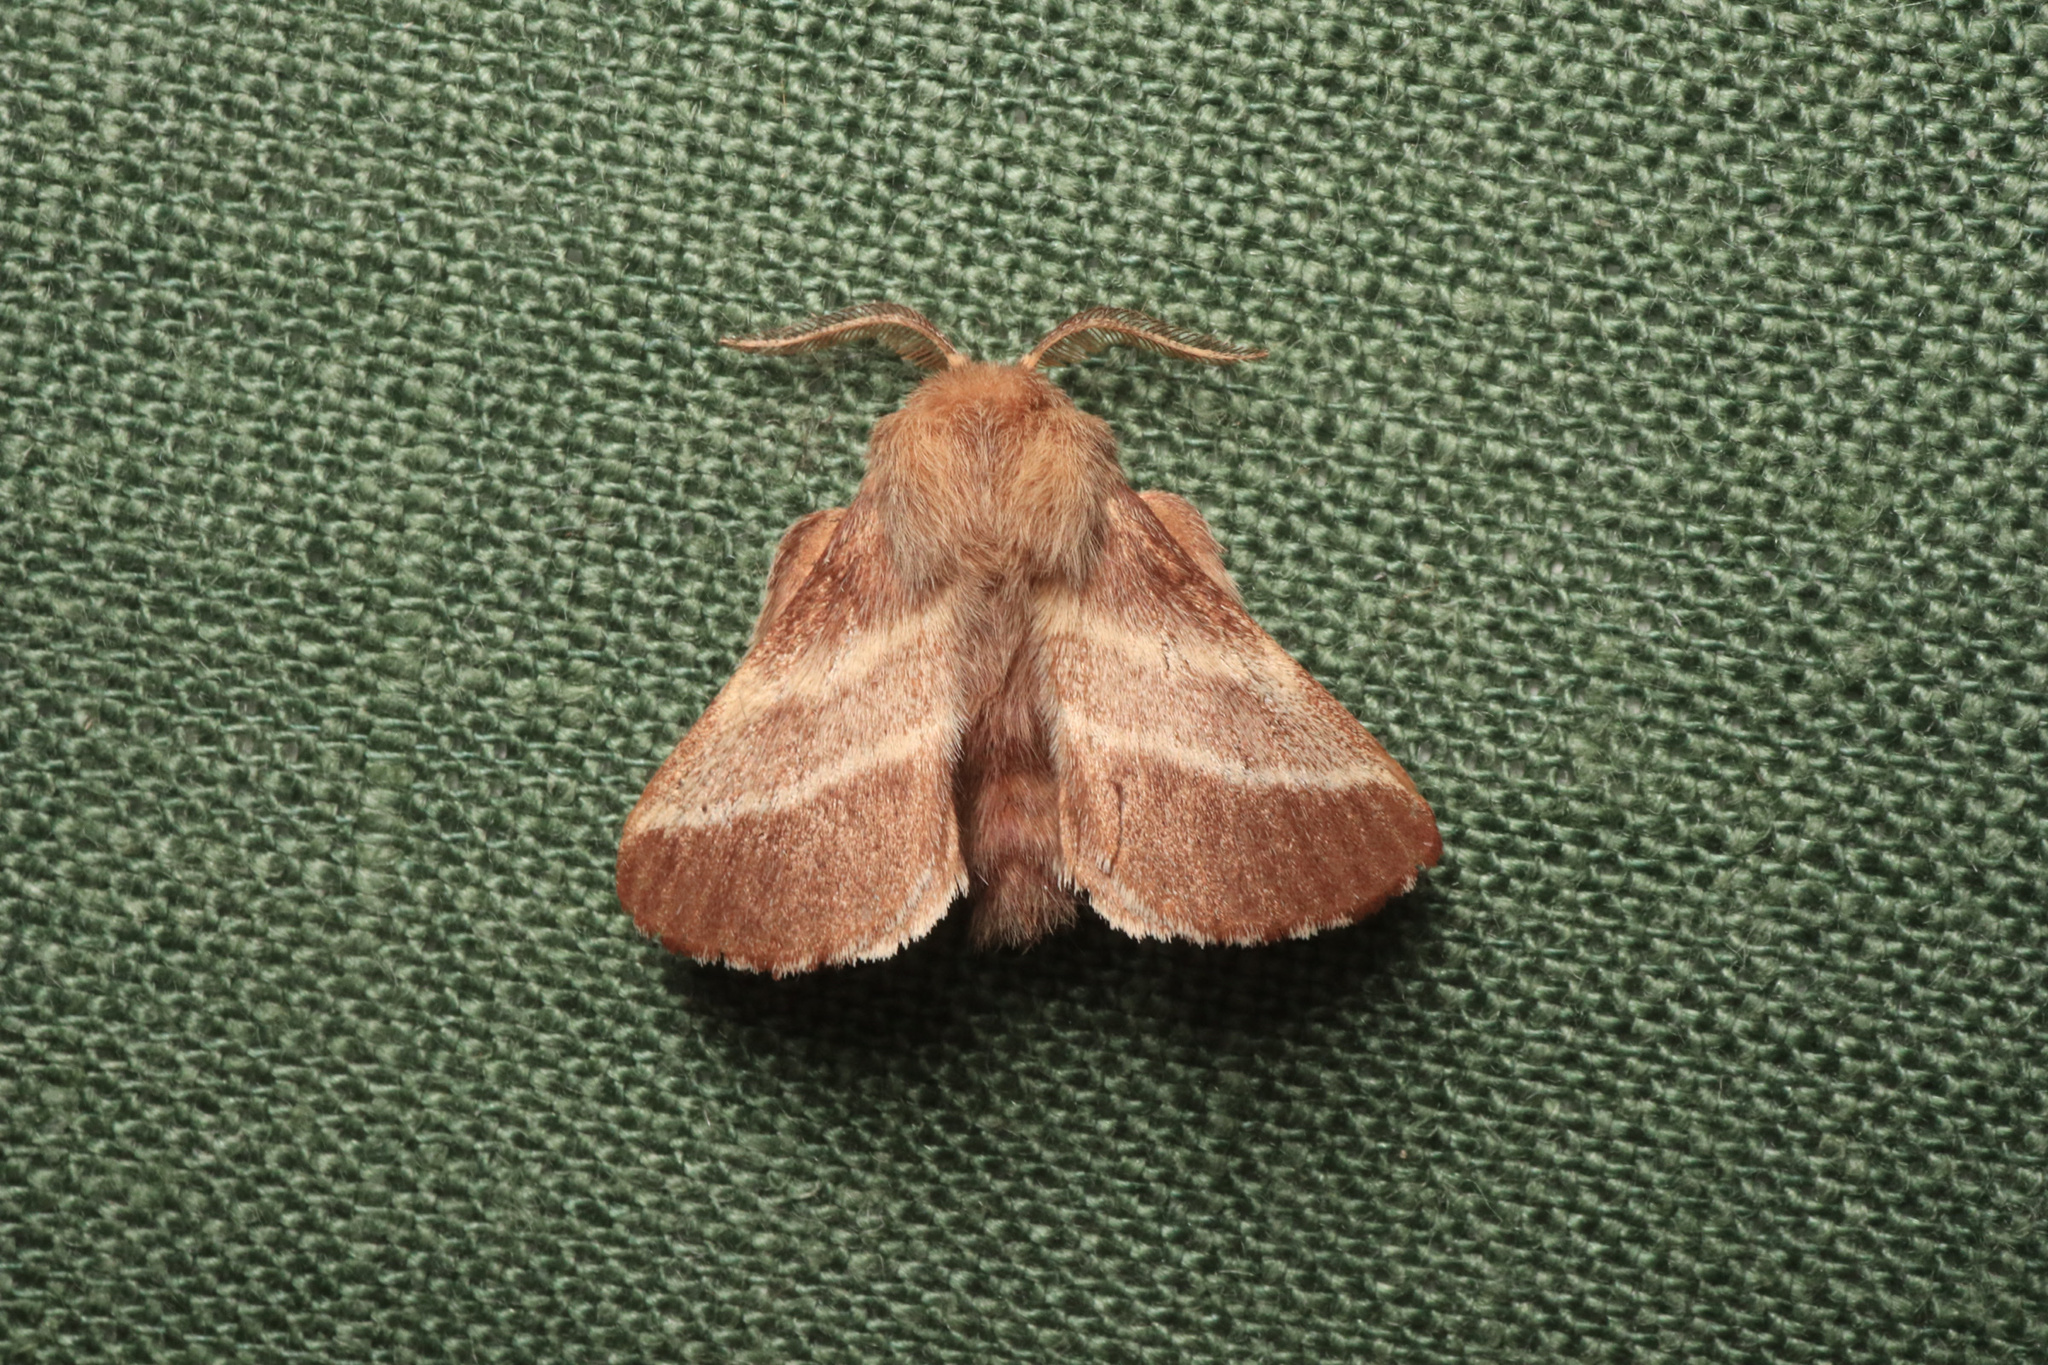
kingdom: Animalia
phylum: Arthropoda
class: Insecta
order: Lepidoptera
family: Lasiocampidae
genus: Malacosoma
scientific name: Malacosoma americana
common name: Eastern tent caterpillar moth
